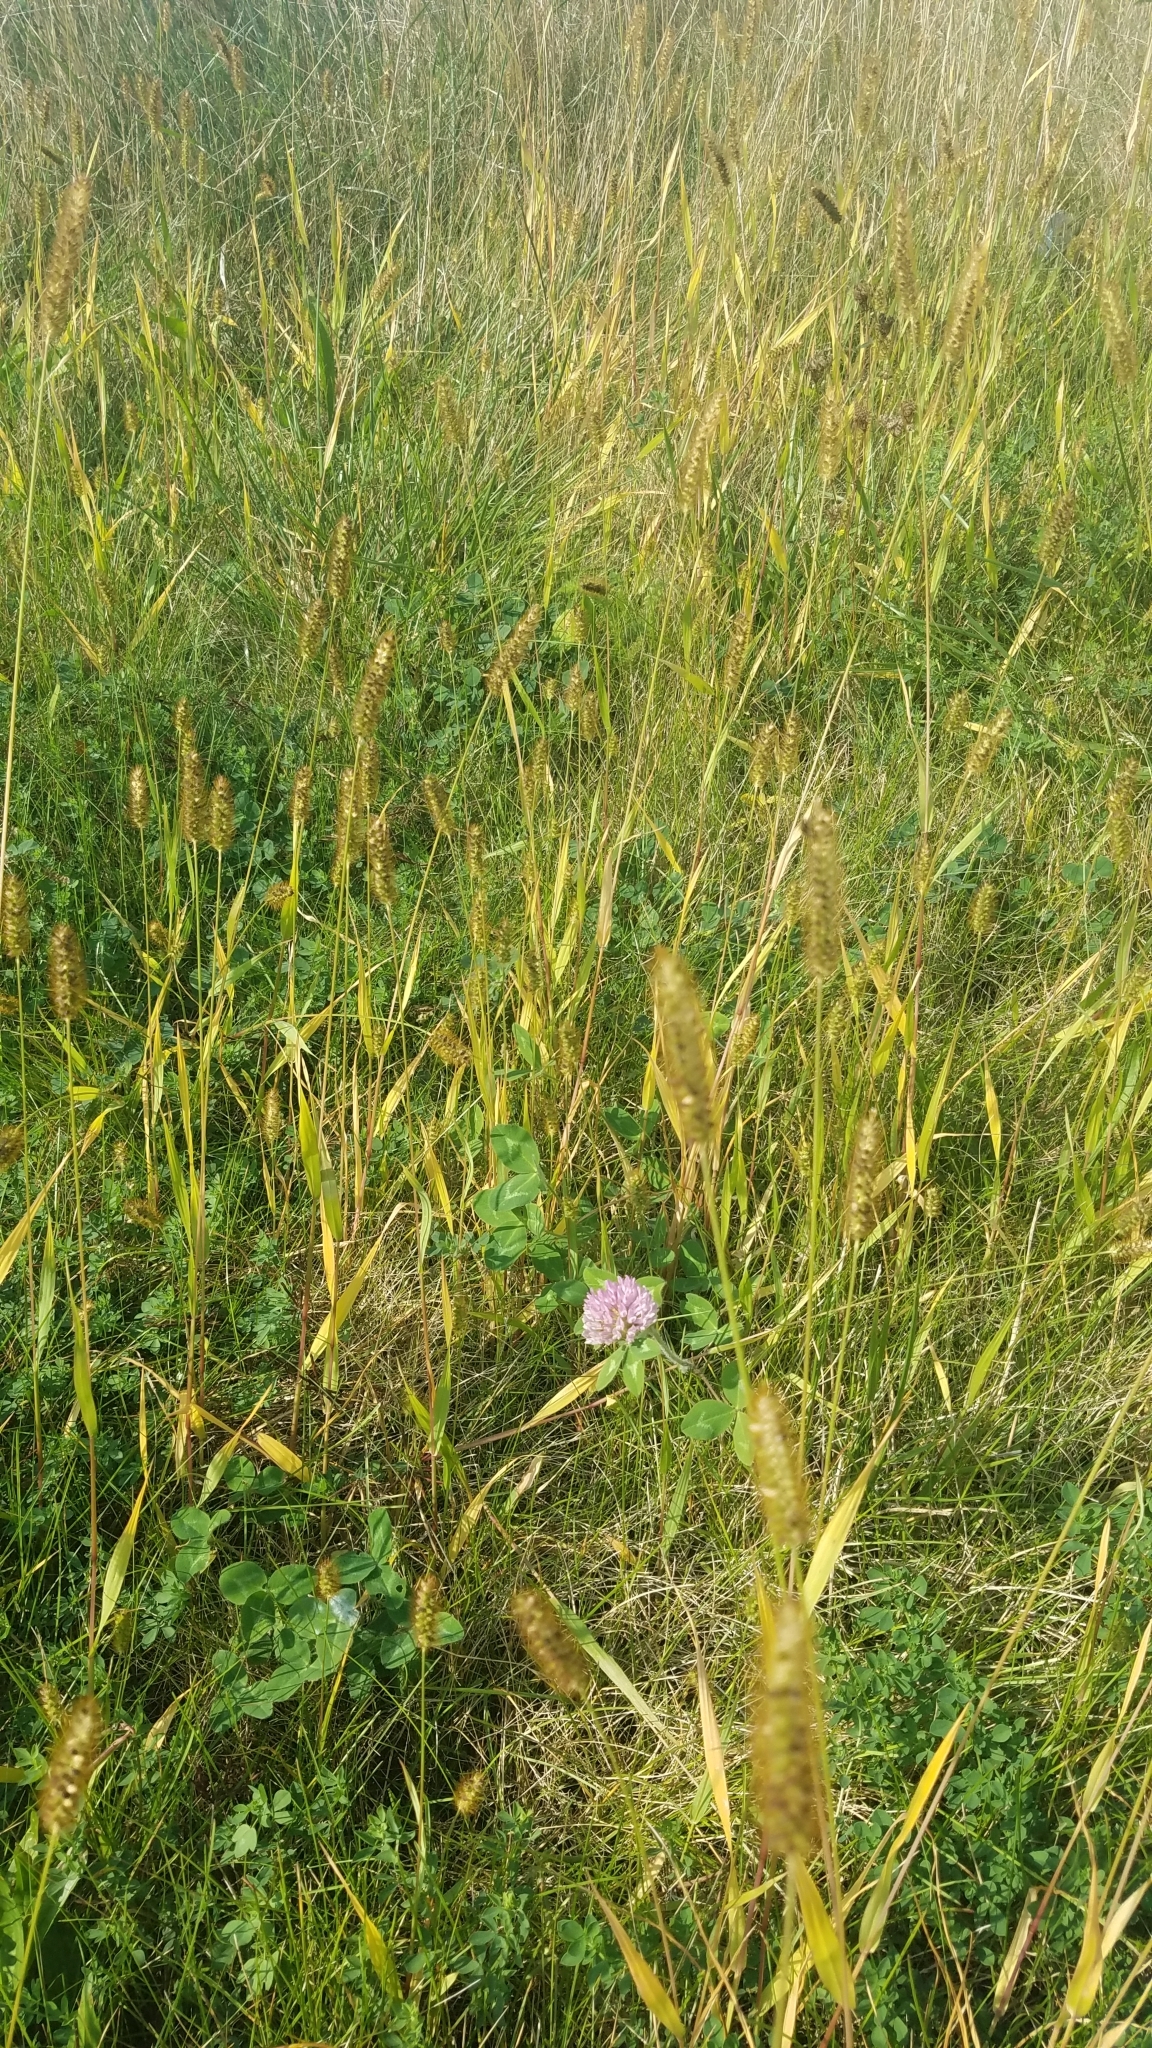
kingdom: Plantae
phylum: Tracheophyta
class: Magnoliopsida
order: Fabales
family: Fabaceae
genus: Trifolium
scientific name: Trifolium pratense
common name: Red clover
